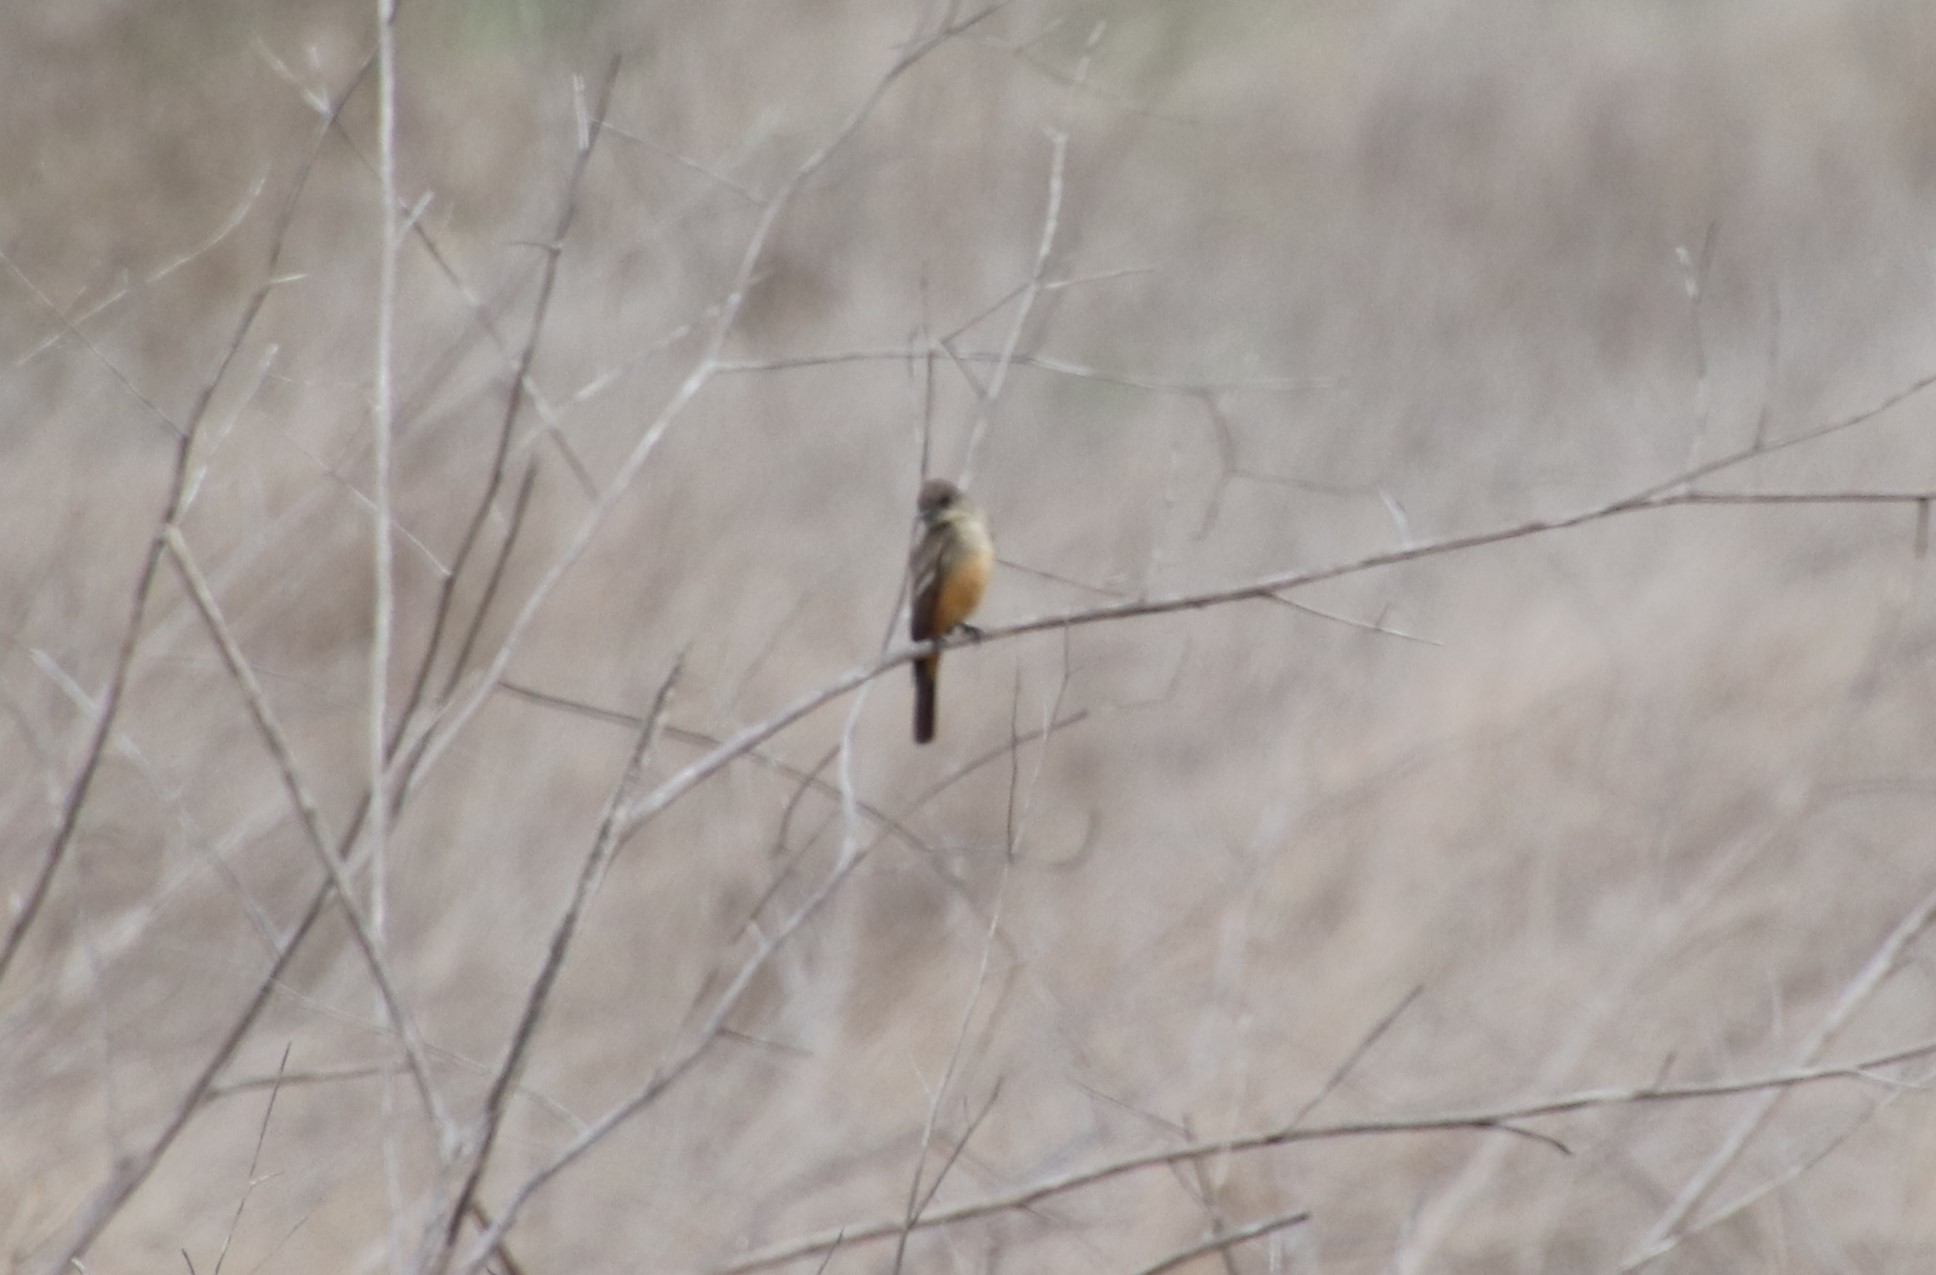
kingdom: Animalia
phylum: Chordata
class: Aves
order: Passeriformes
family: Tyrannidae
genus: Sayornis
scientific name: Sayornis saya
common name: Say's phoebe
